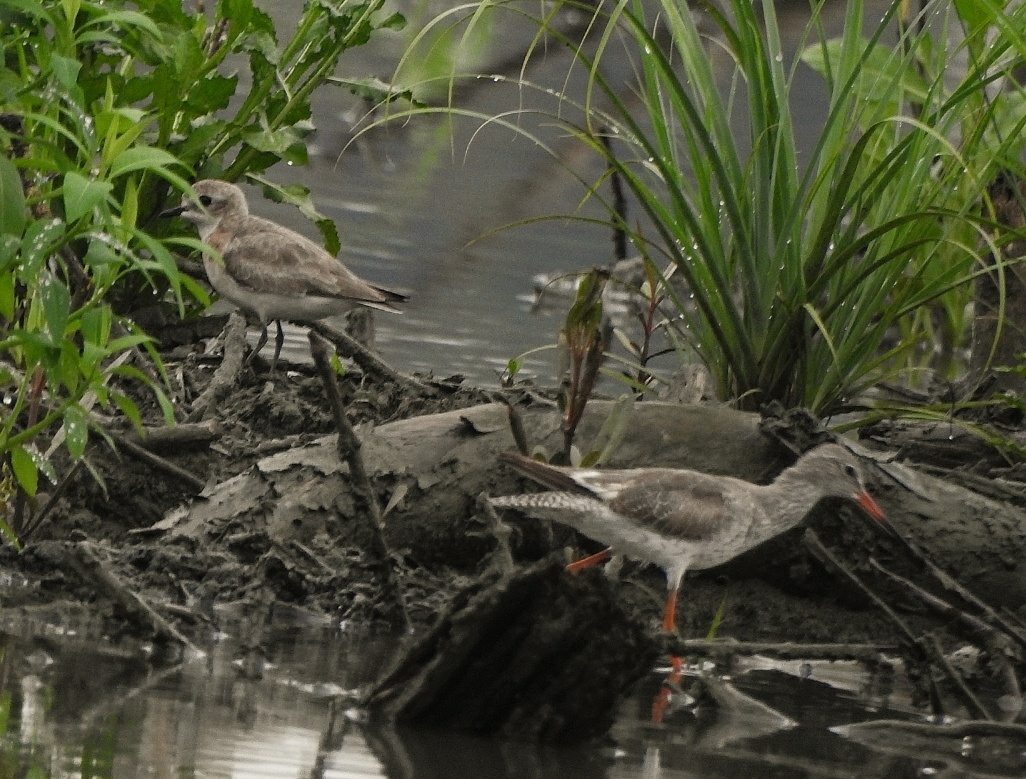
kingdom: Animalia
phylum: Chordata
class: Aves
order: Charadriiformes
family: Scolopacidae
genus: Tringa
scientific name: Tringa totanus
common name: Common redshank
